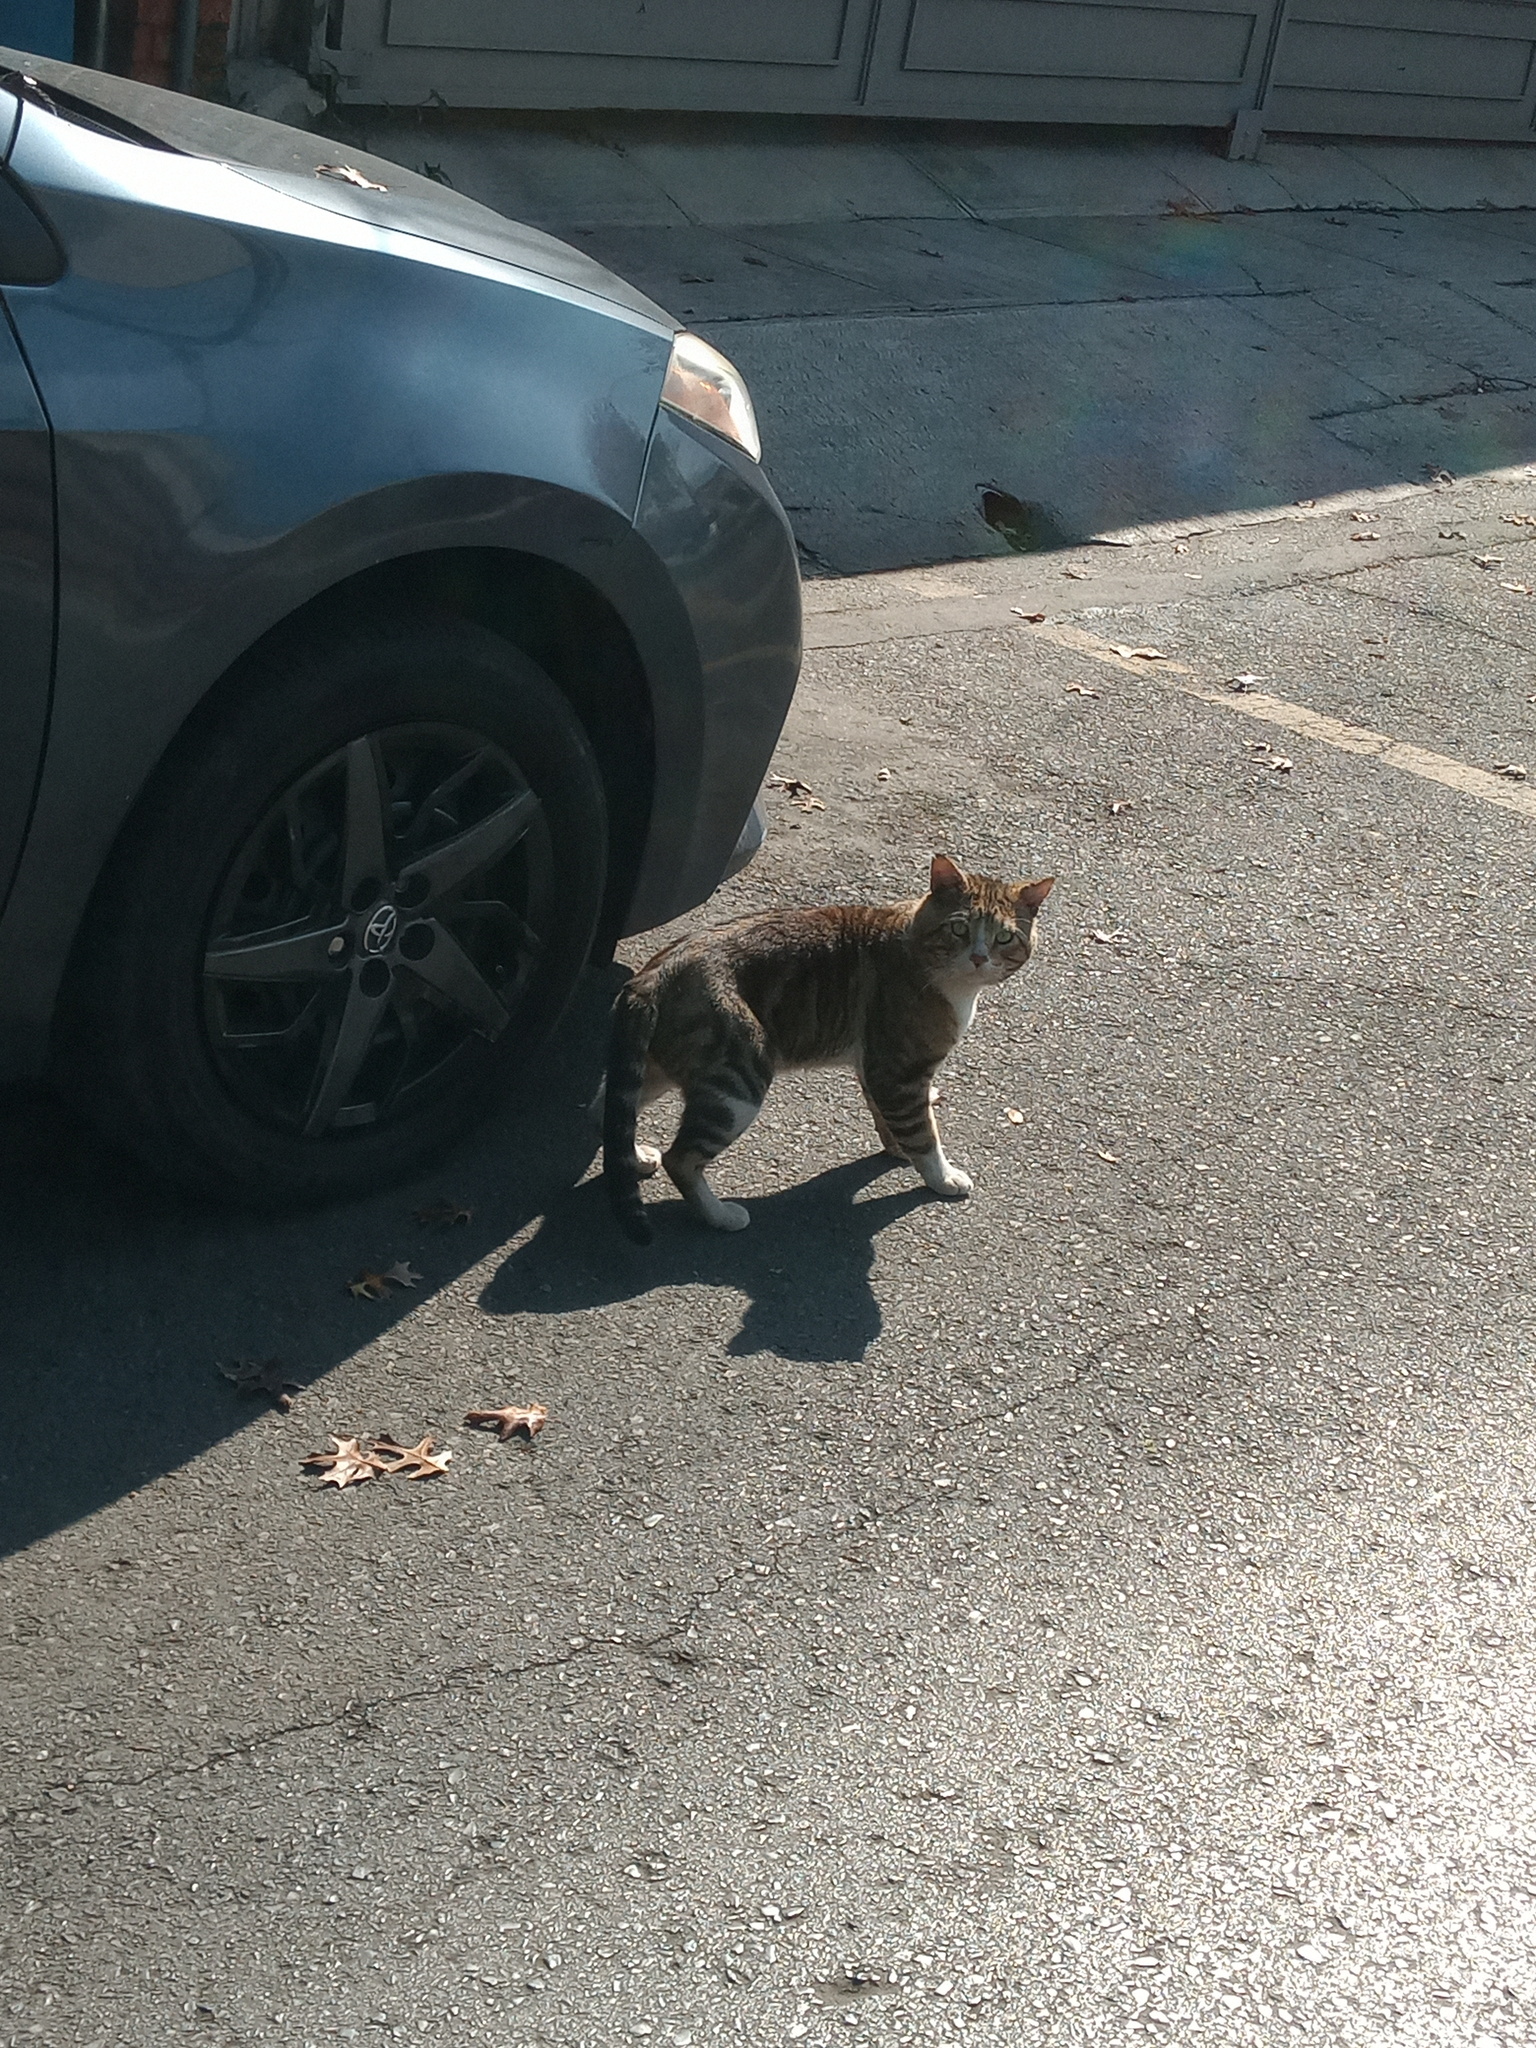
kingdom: Animalia
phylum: Chordata
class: Mammalia
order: Carnivora
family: Felidae
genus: Felis
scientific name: Felis catus
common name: Domestic cat
